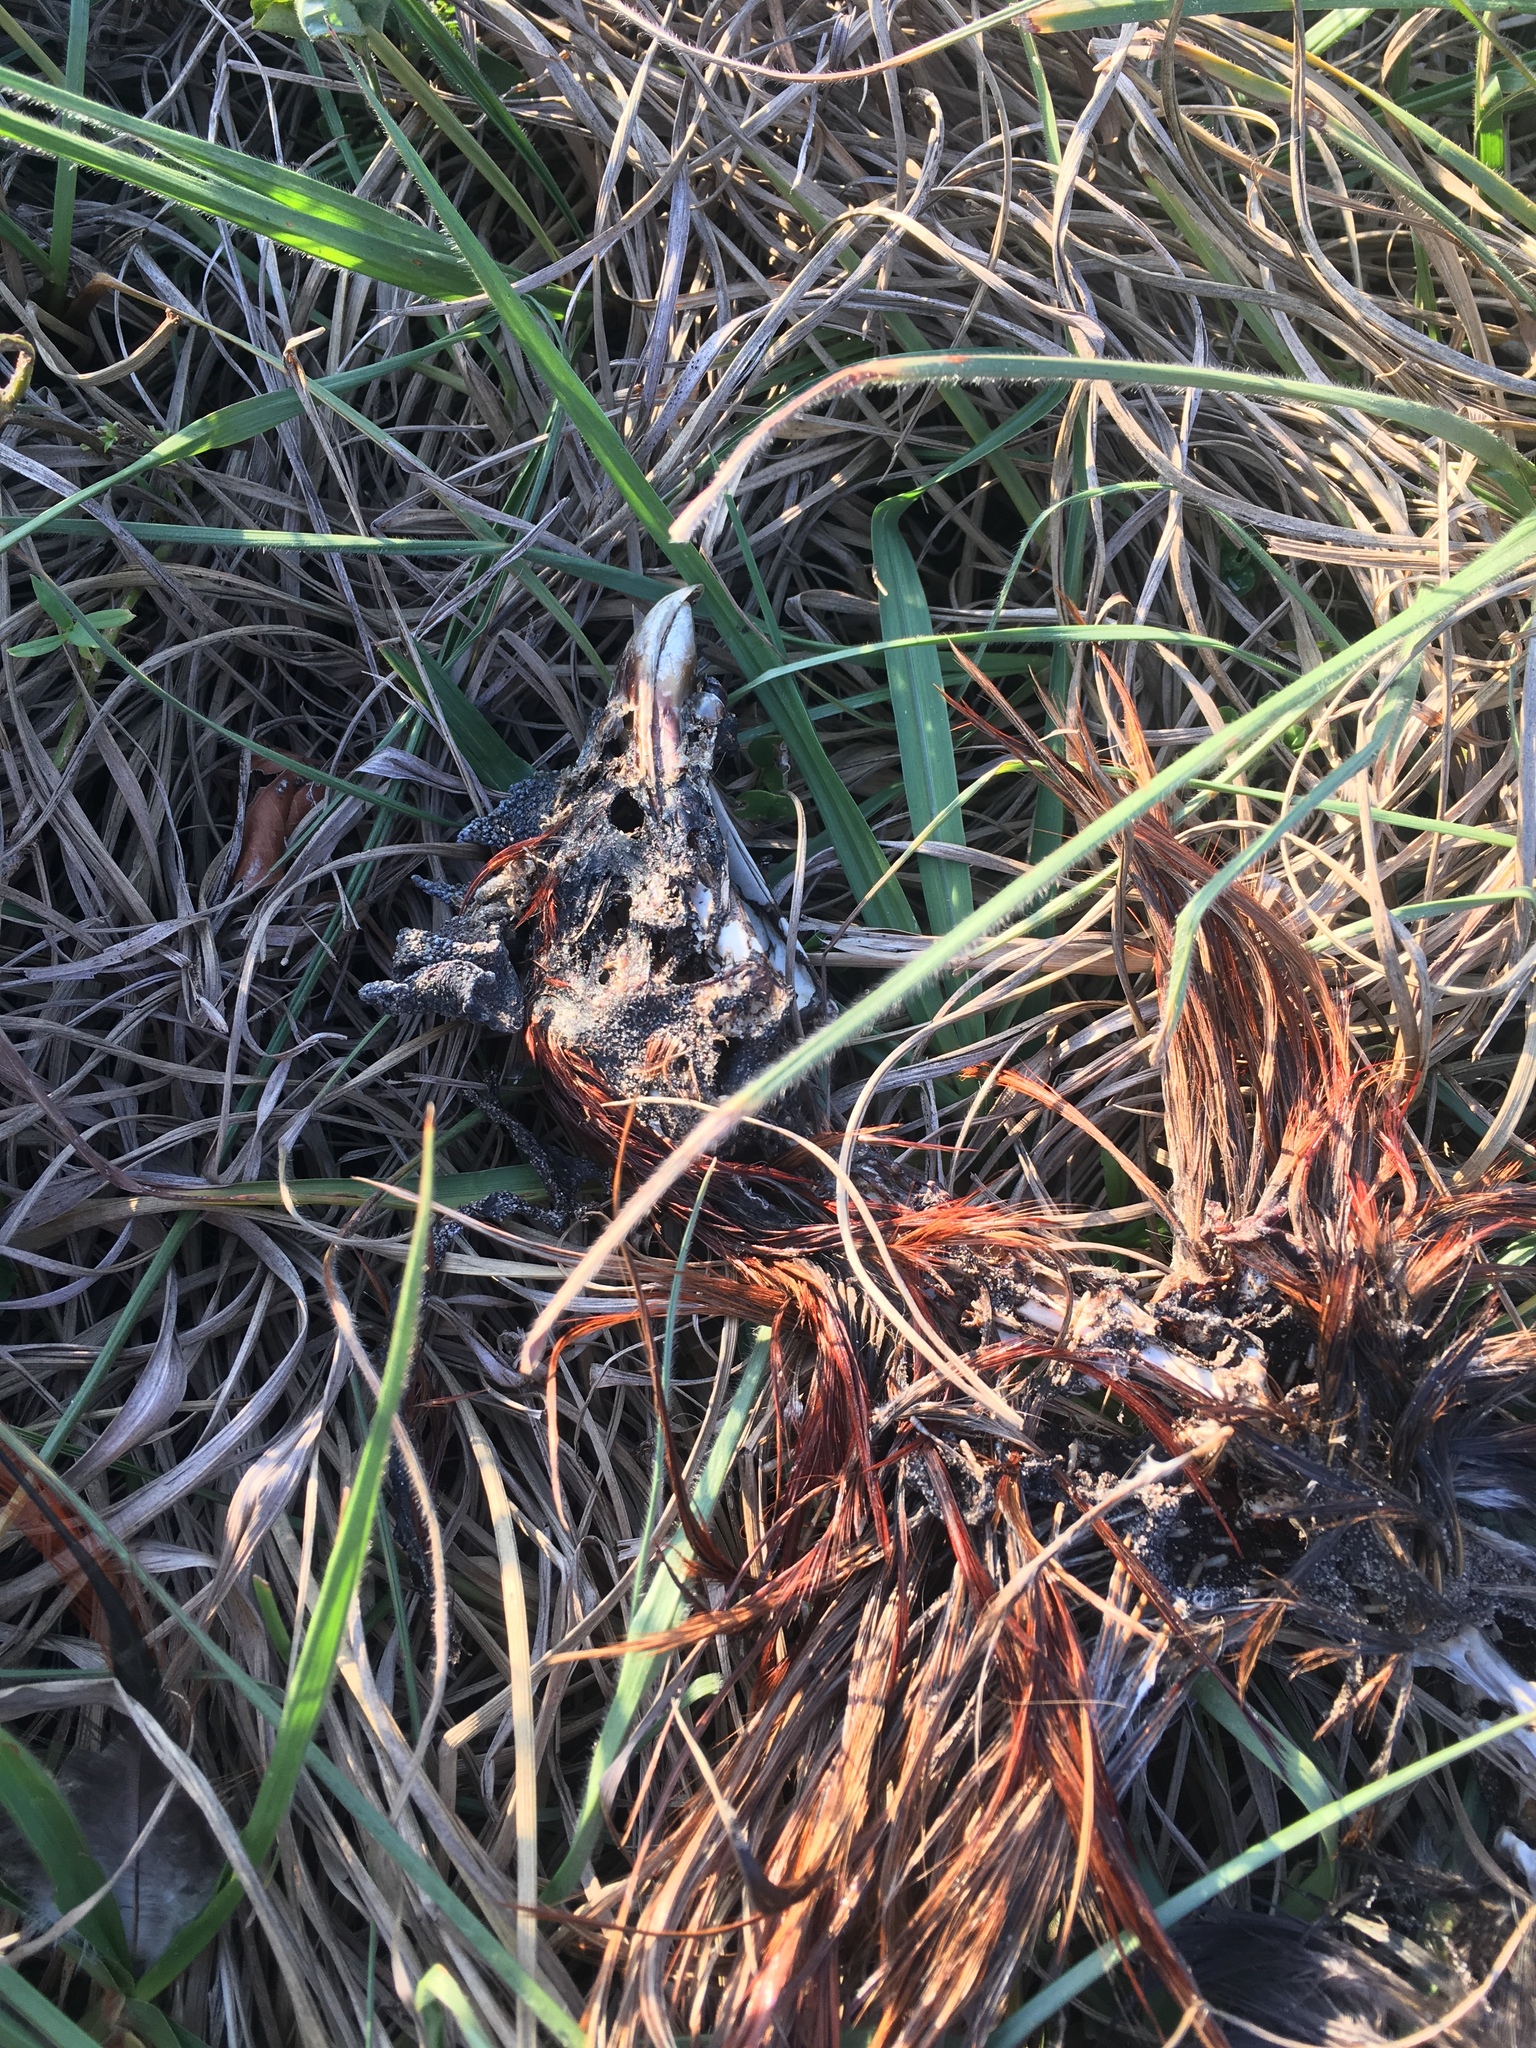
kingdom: Animalia
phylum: Chordata
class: Aves
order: Galliformes
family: Phasianidae
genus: Gallus
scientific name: Gallus gallus
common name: Red junglefowl
